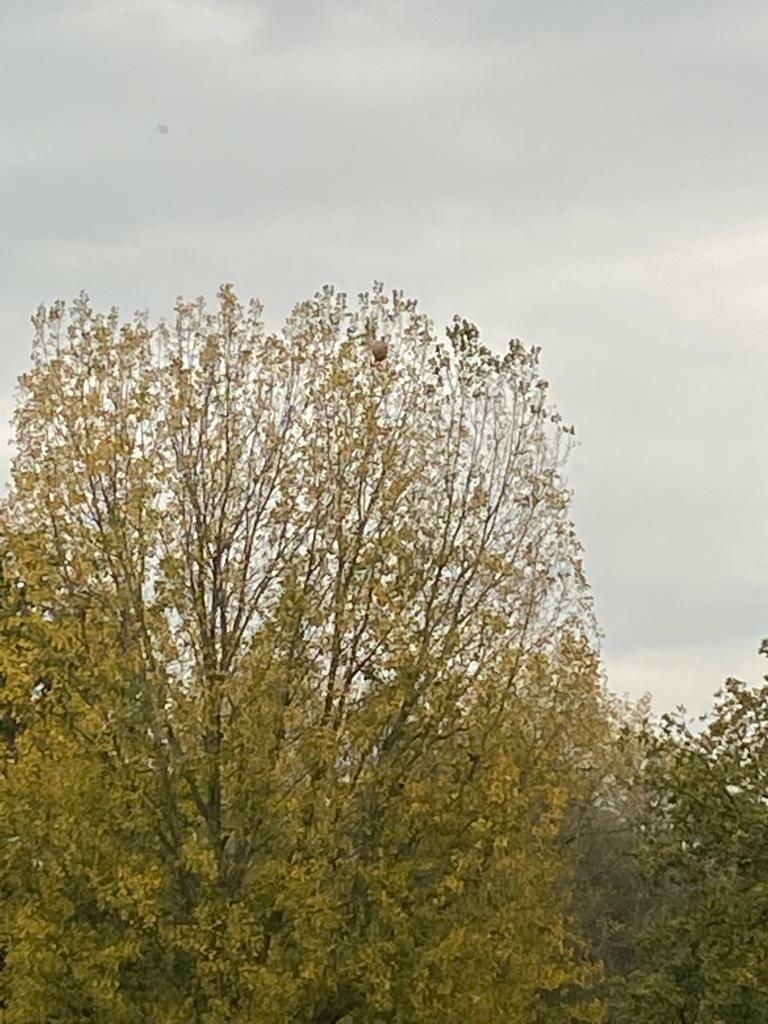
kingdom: Animalia
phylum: Arthropoda
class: Insecta
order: Hymenoptera
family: Vespidae
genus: Vespa
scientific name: Vespa velutina
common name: Asian hornet
